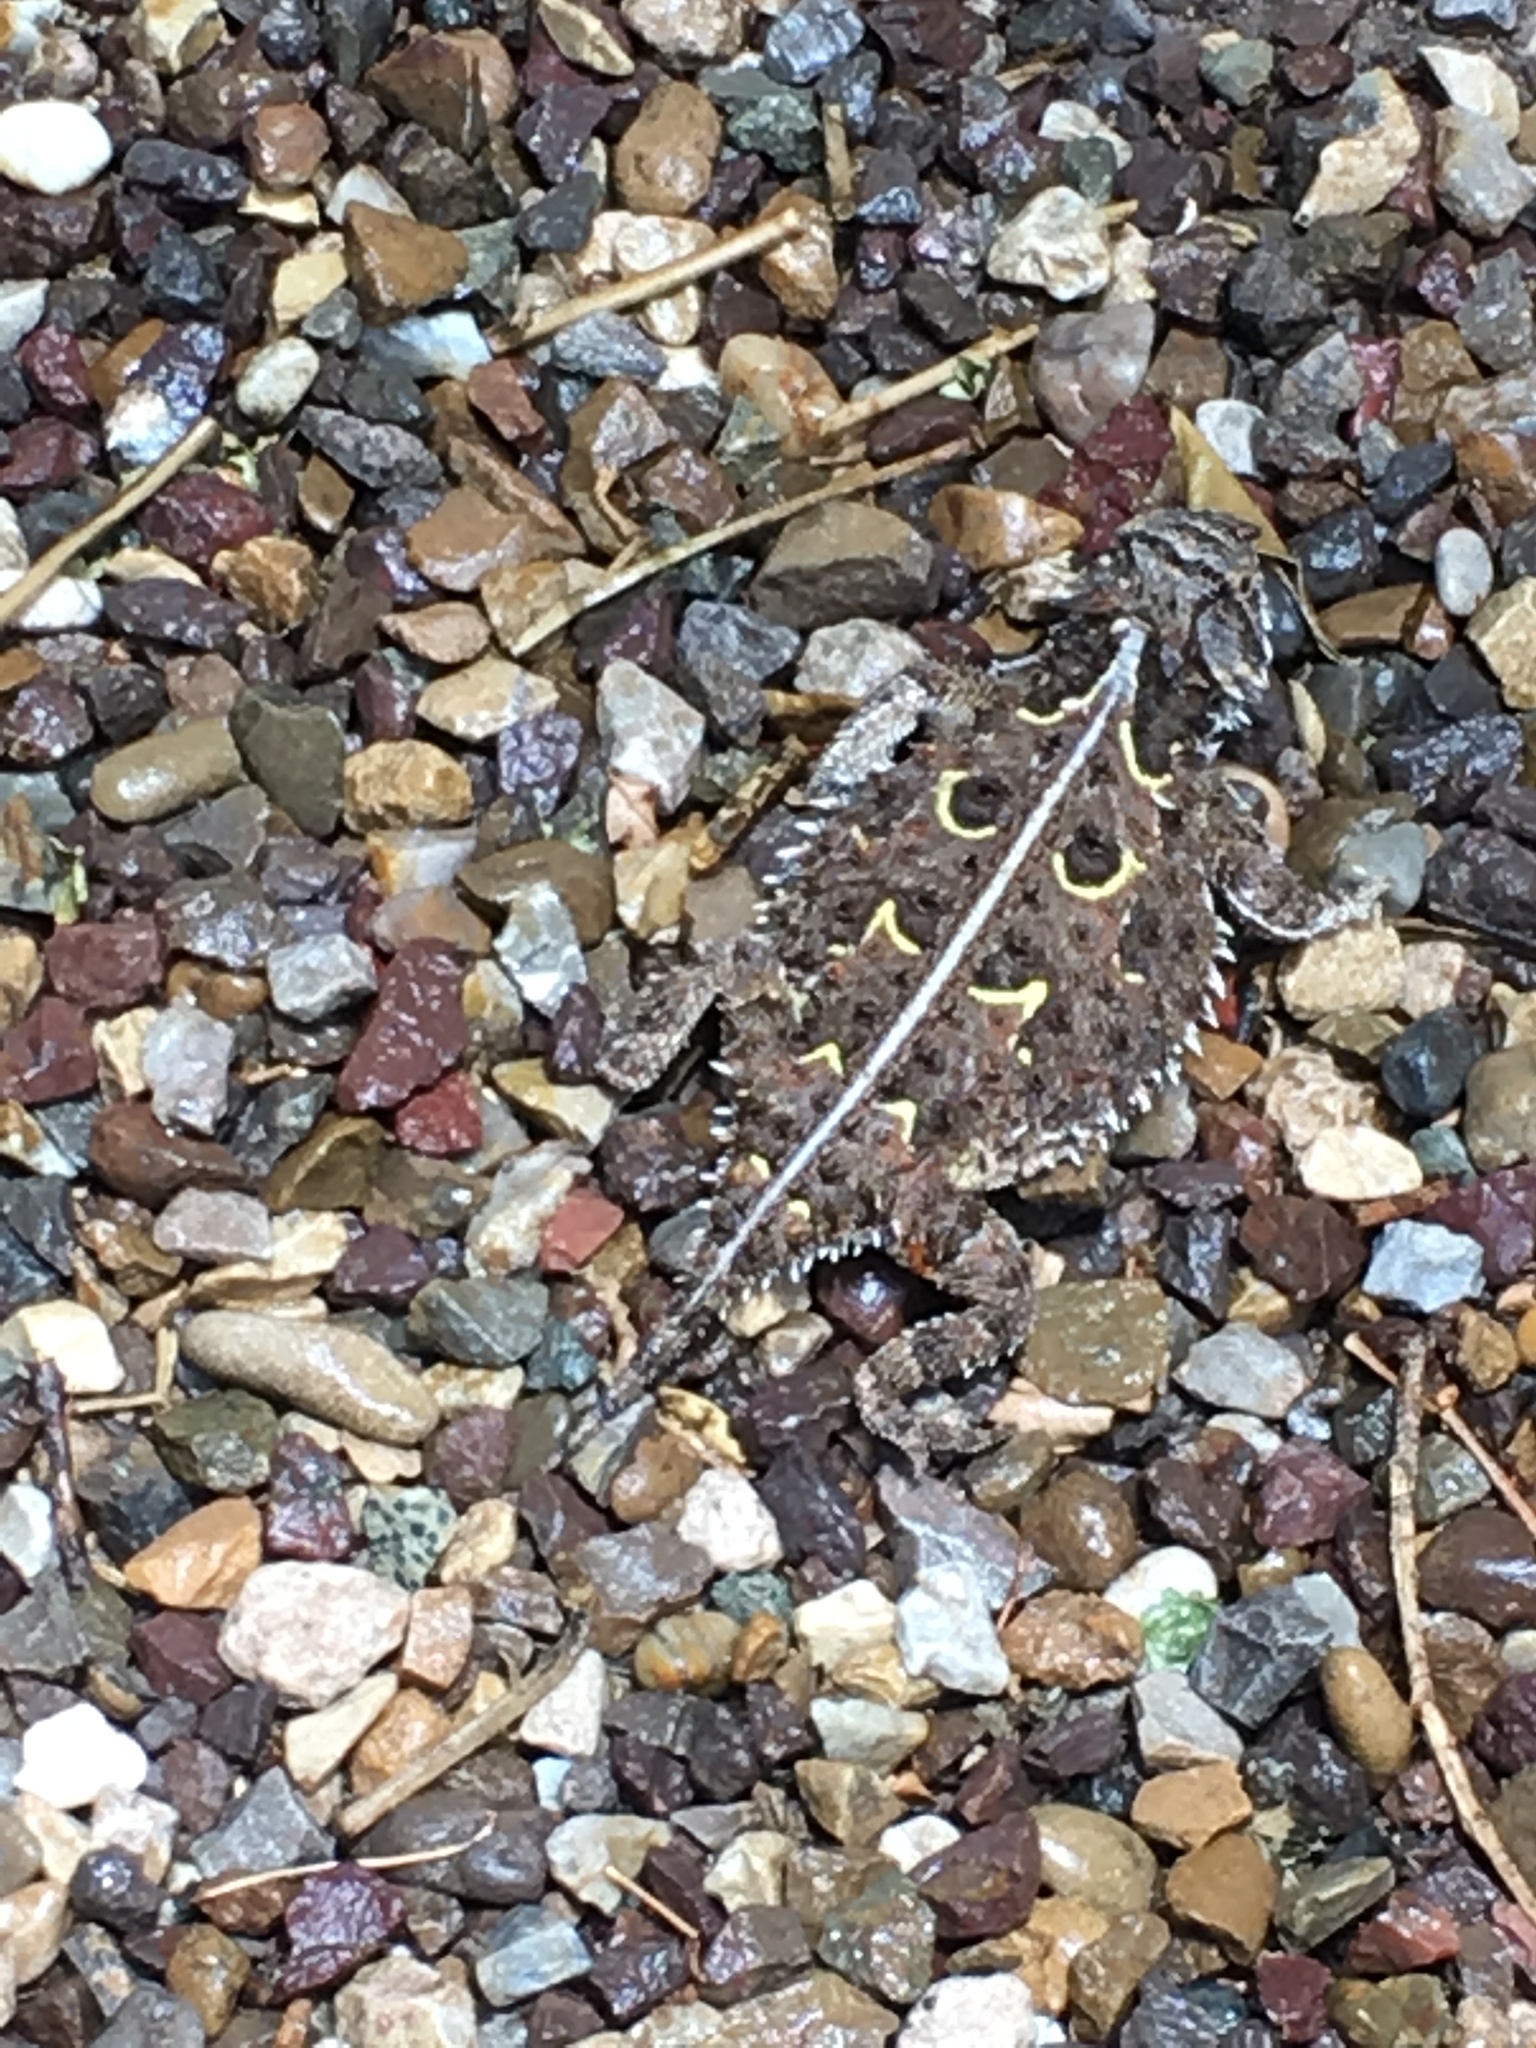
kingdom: Animalia
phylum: Chordata
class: Squamata
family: Phrynosomatidae
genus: Phrynosoma
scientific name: Phrynosoma cornutum
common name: Texas horned lizard
